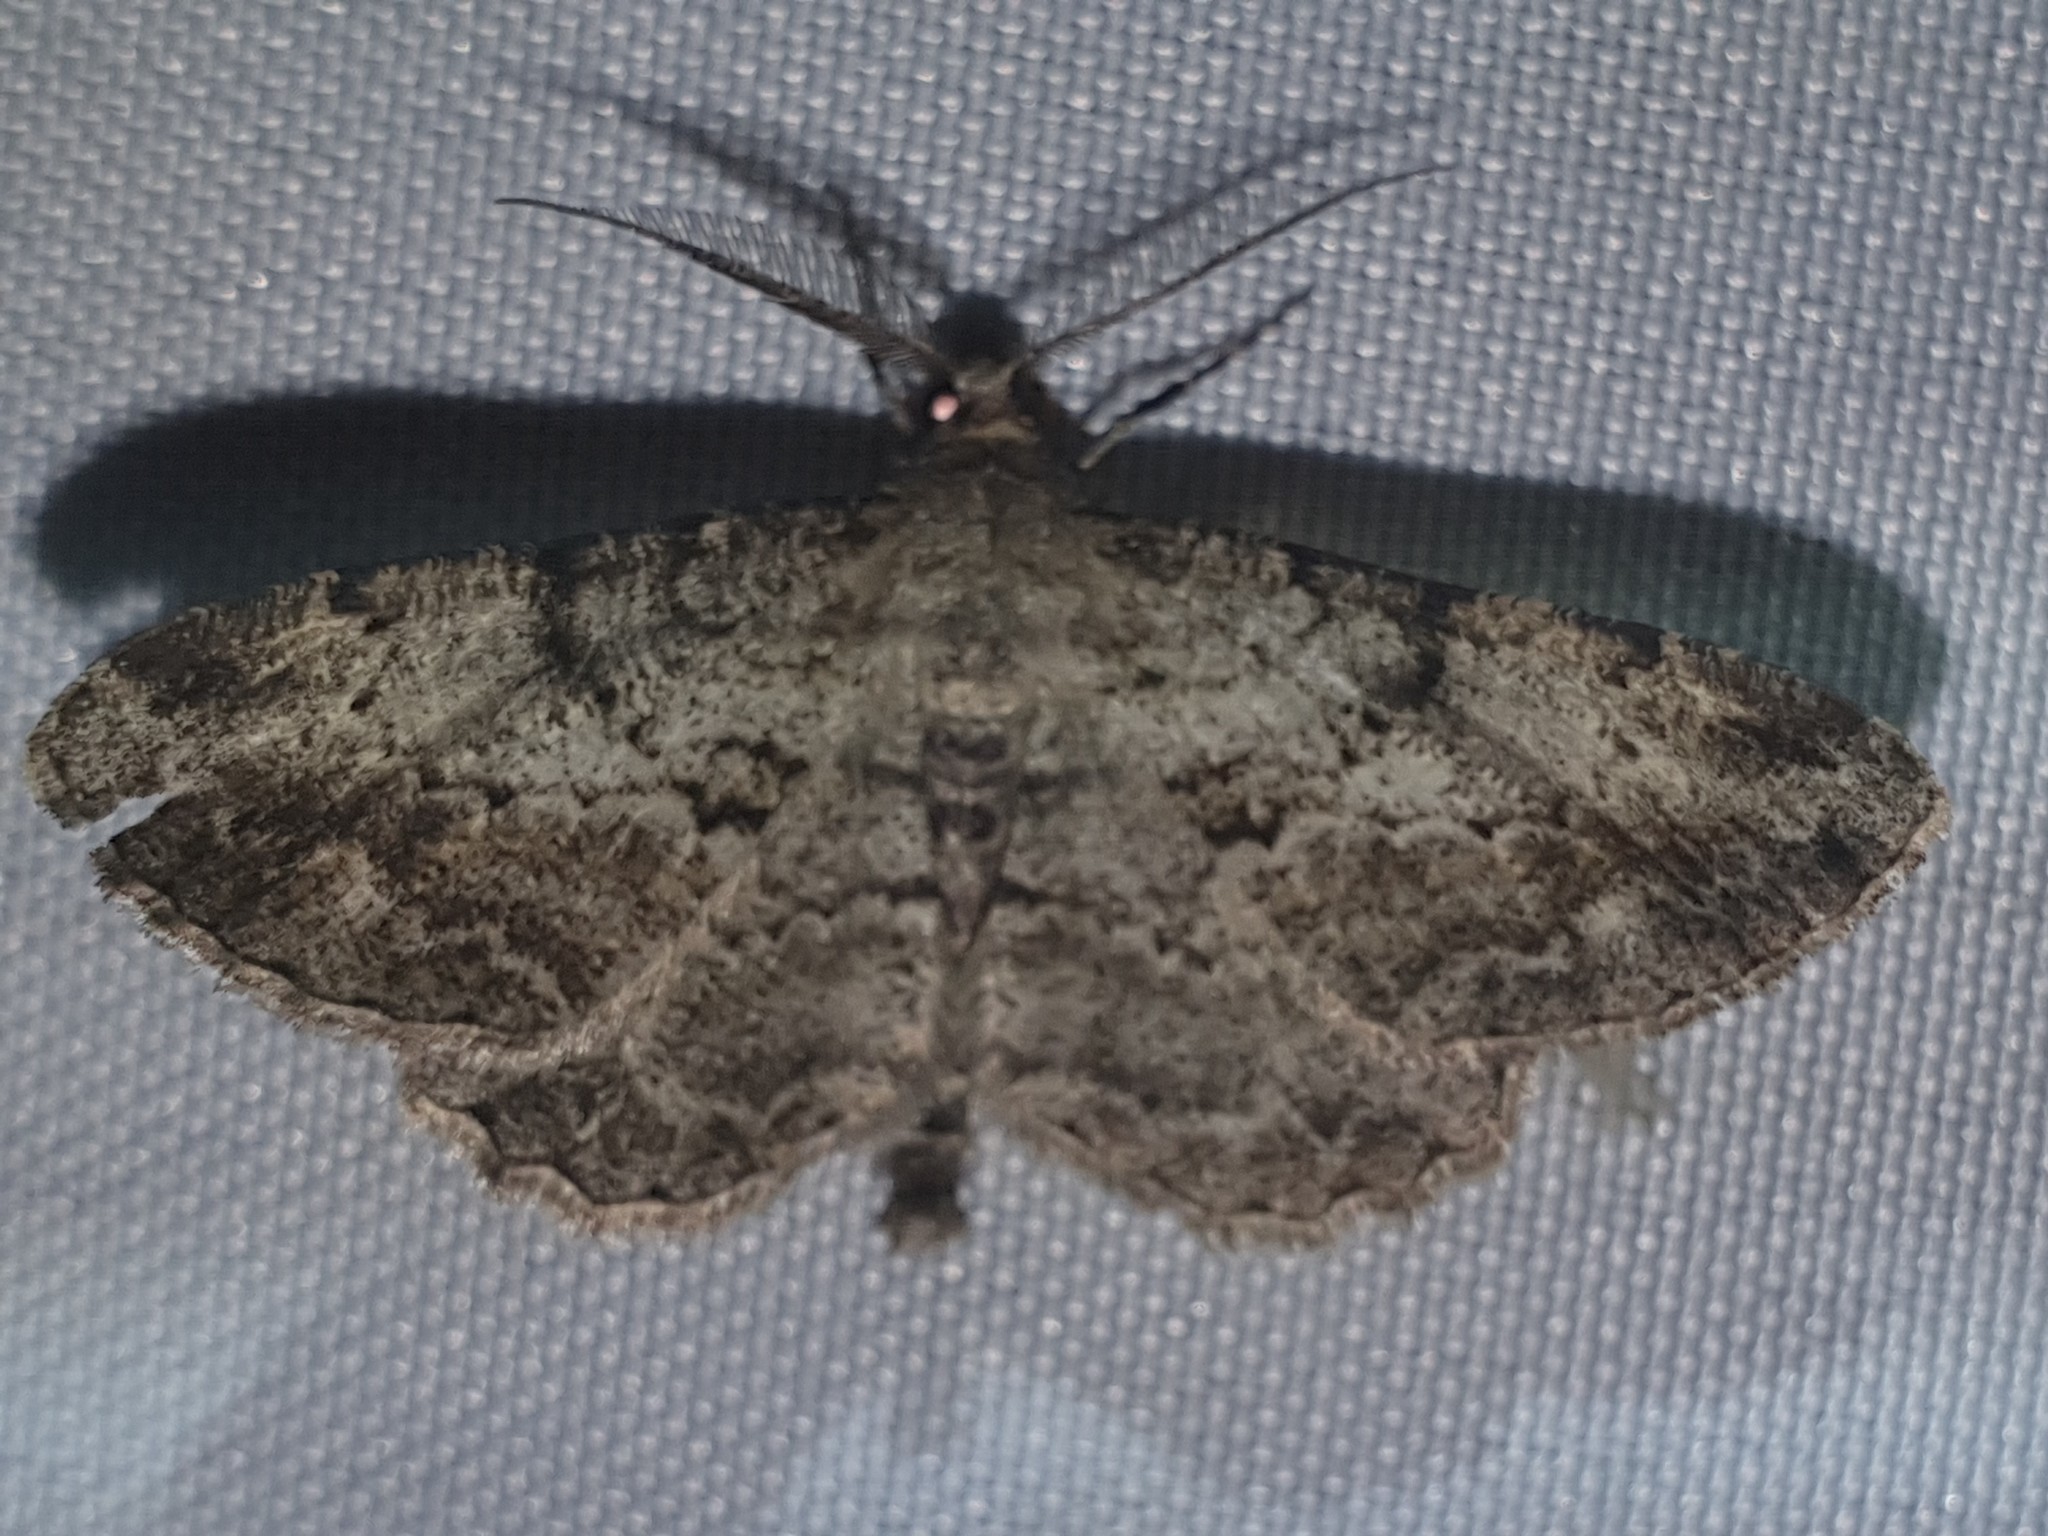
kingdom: Animalia
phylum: Arthropoda
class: Insecta
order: Lepidoptera
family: Geometridae
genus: Peribatodes
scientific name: Peribatodes rhomboidaria
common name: Willow beauty
